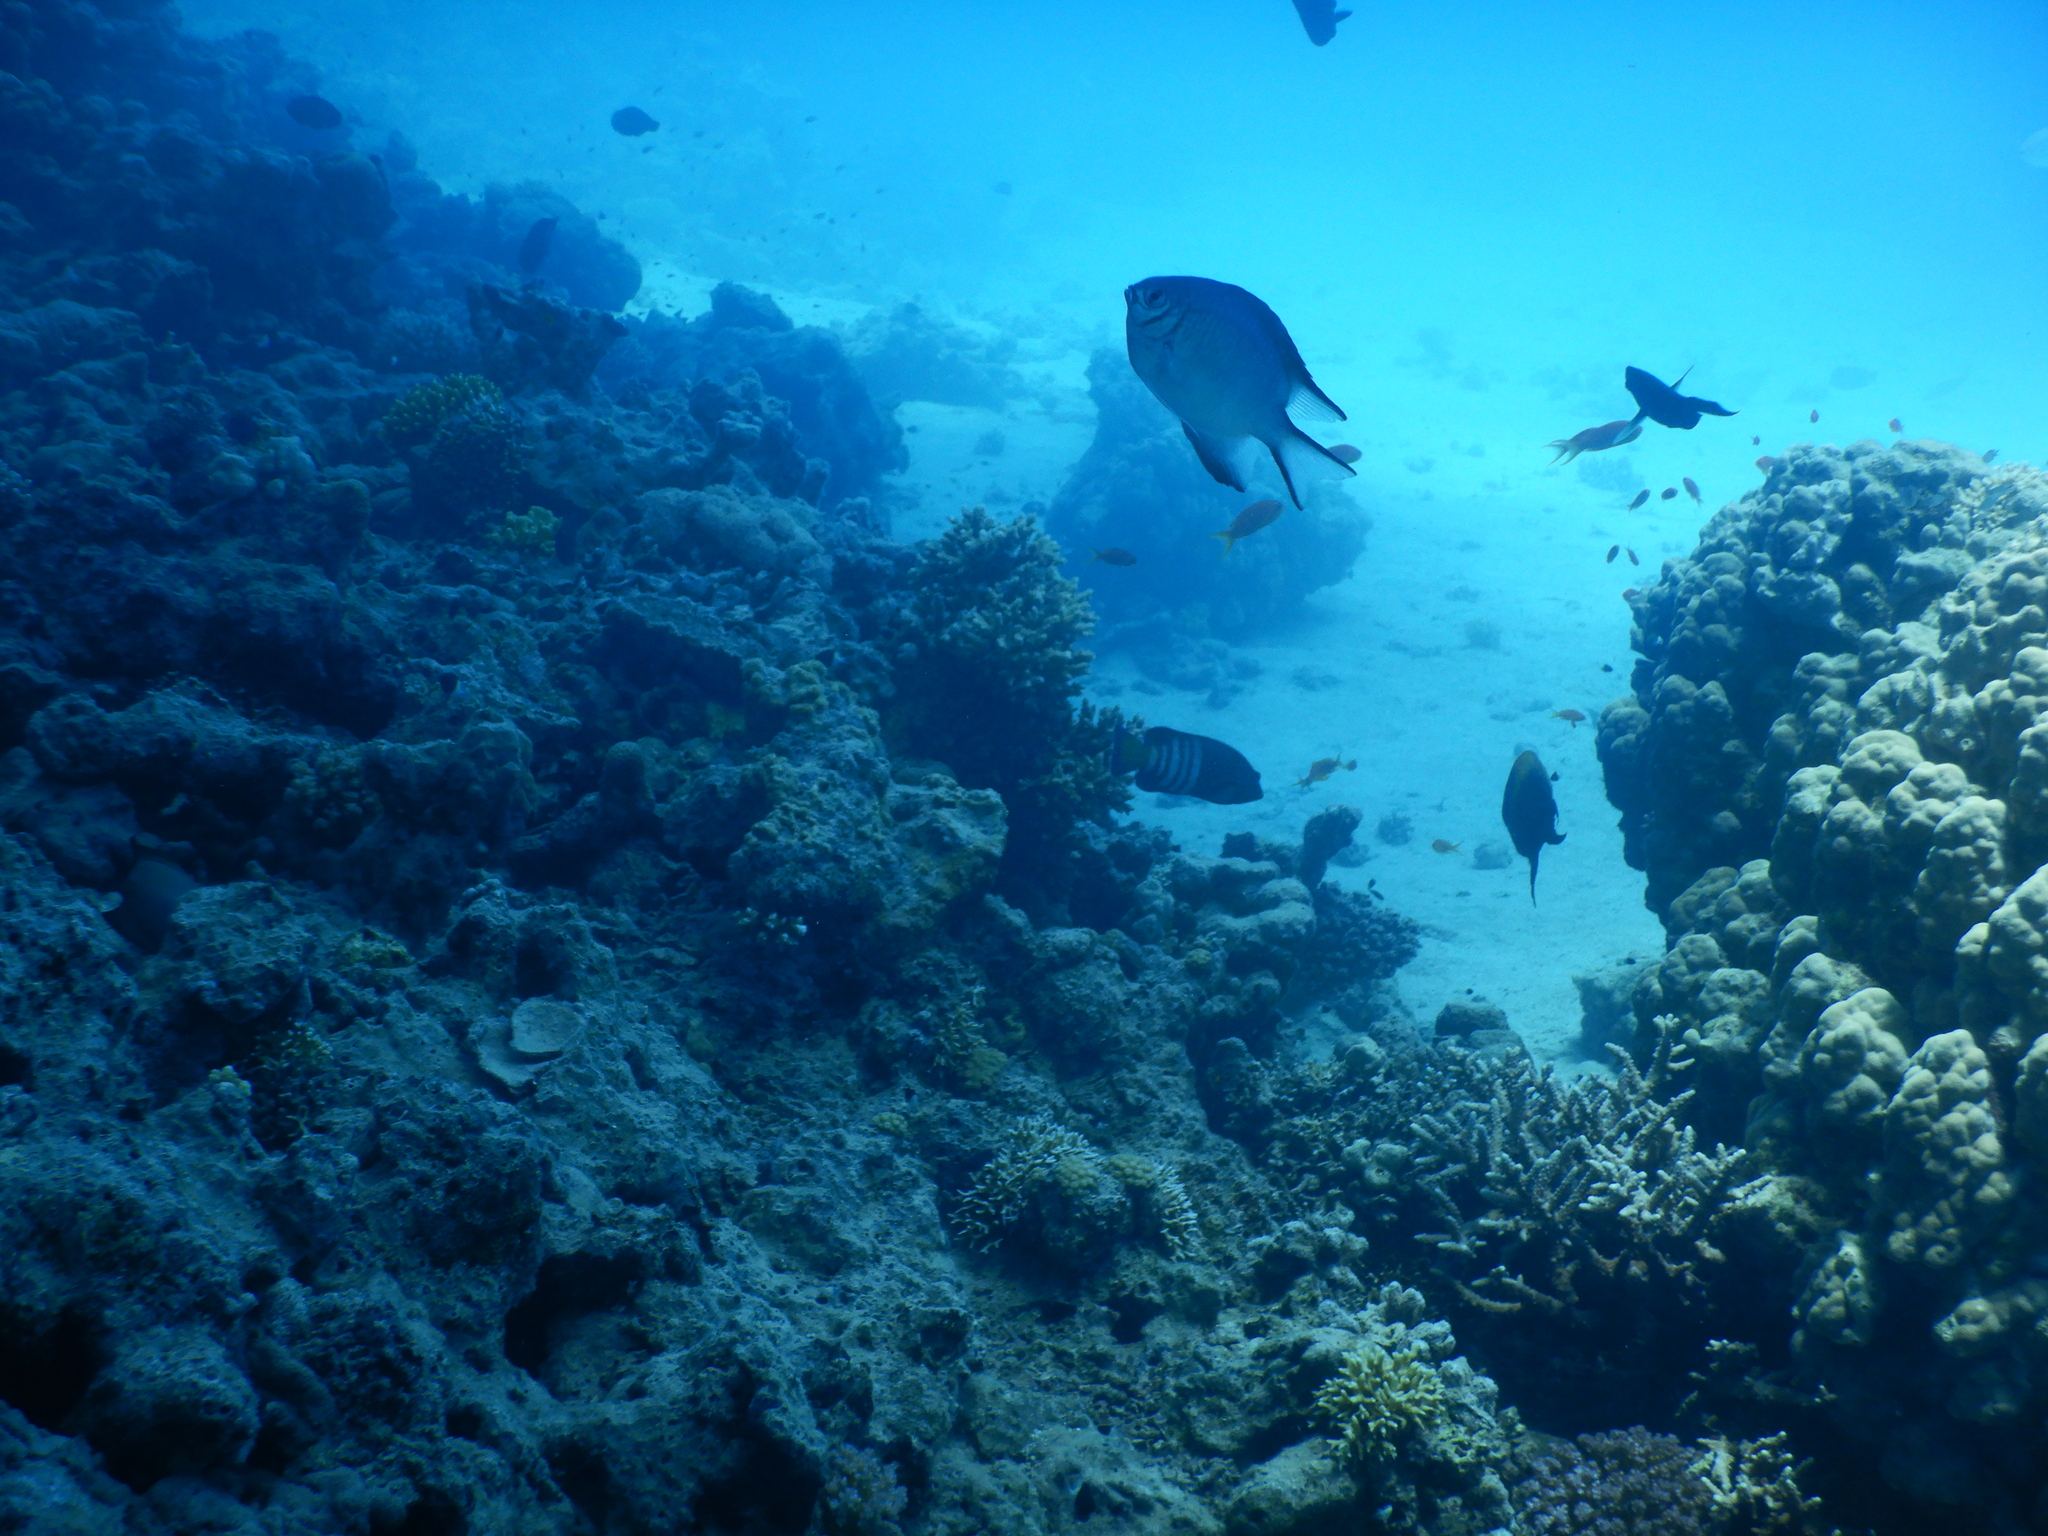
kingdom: Animalia
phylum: Chordata
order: Perciformes
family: Pomacentridae
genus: Amblyglyphidodon
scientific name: Amblyglyphidodon indicus
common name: Maldives damselfish
